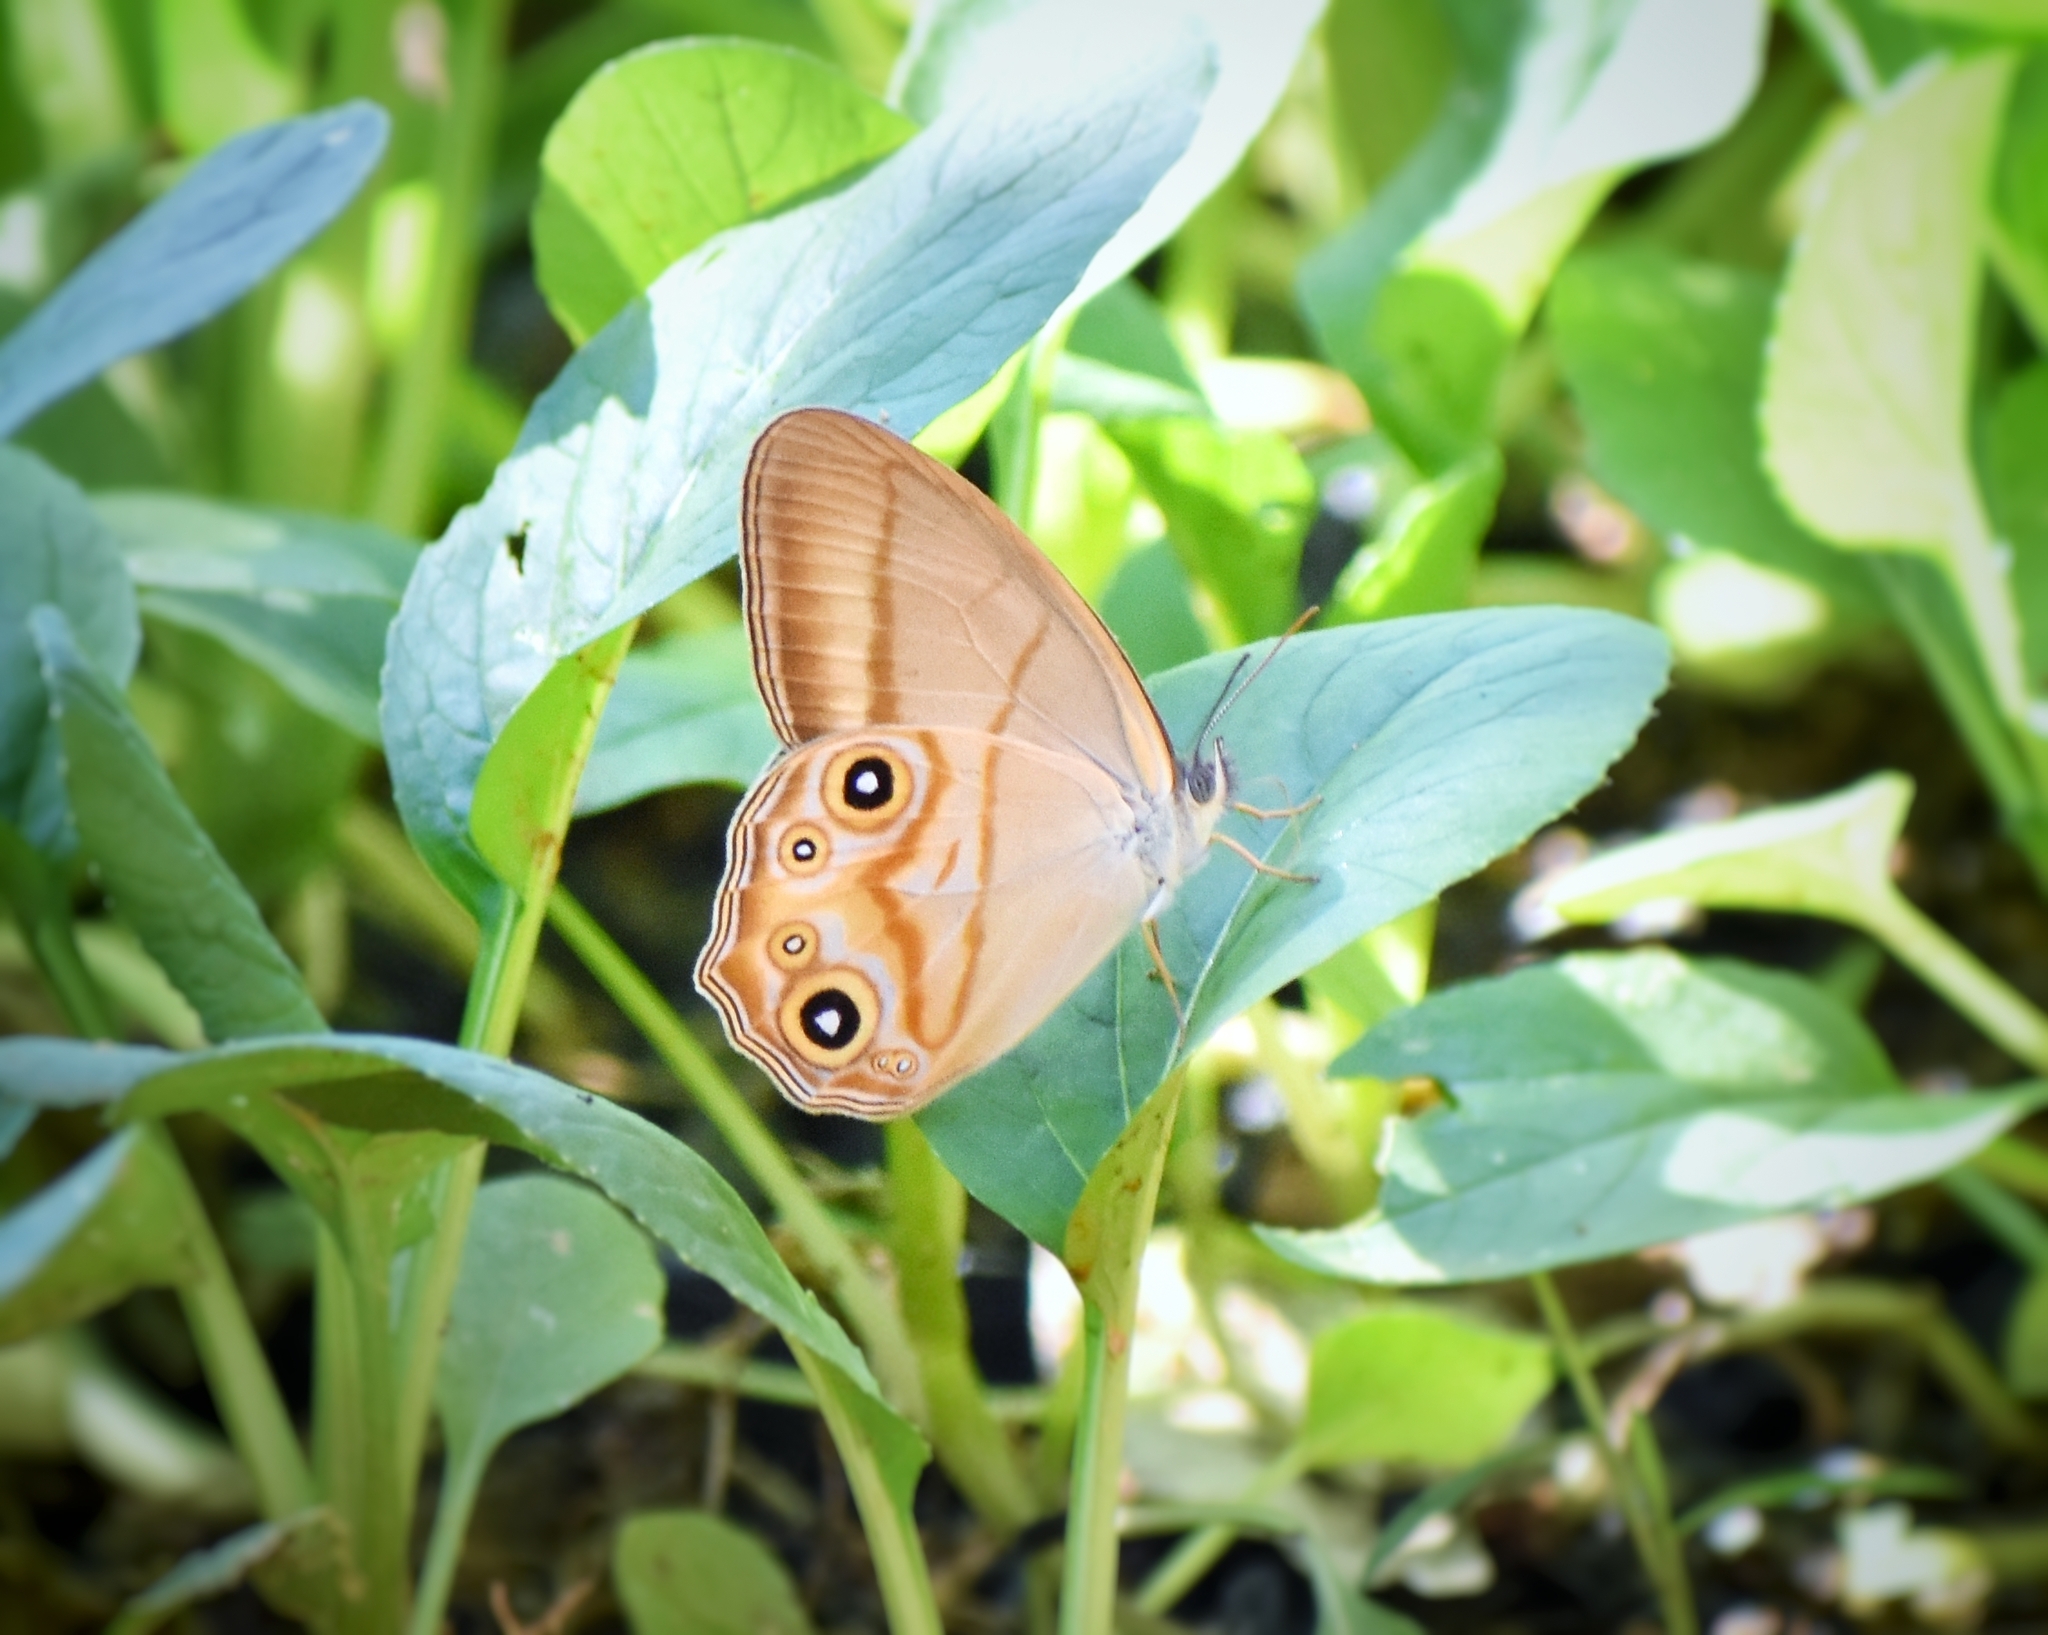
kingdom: Animalia
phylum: Arthropoda
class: Insecta
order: Lepidoptera
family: Nymphalidae
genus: Lethe
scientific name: Lethe syrcis
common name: Yellow forester
